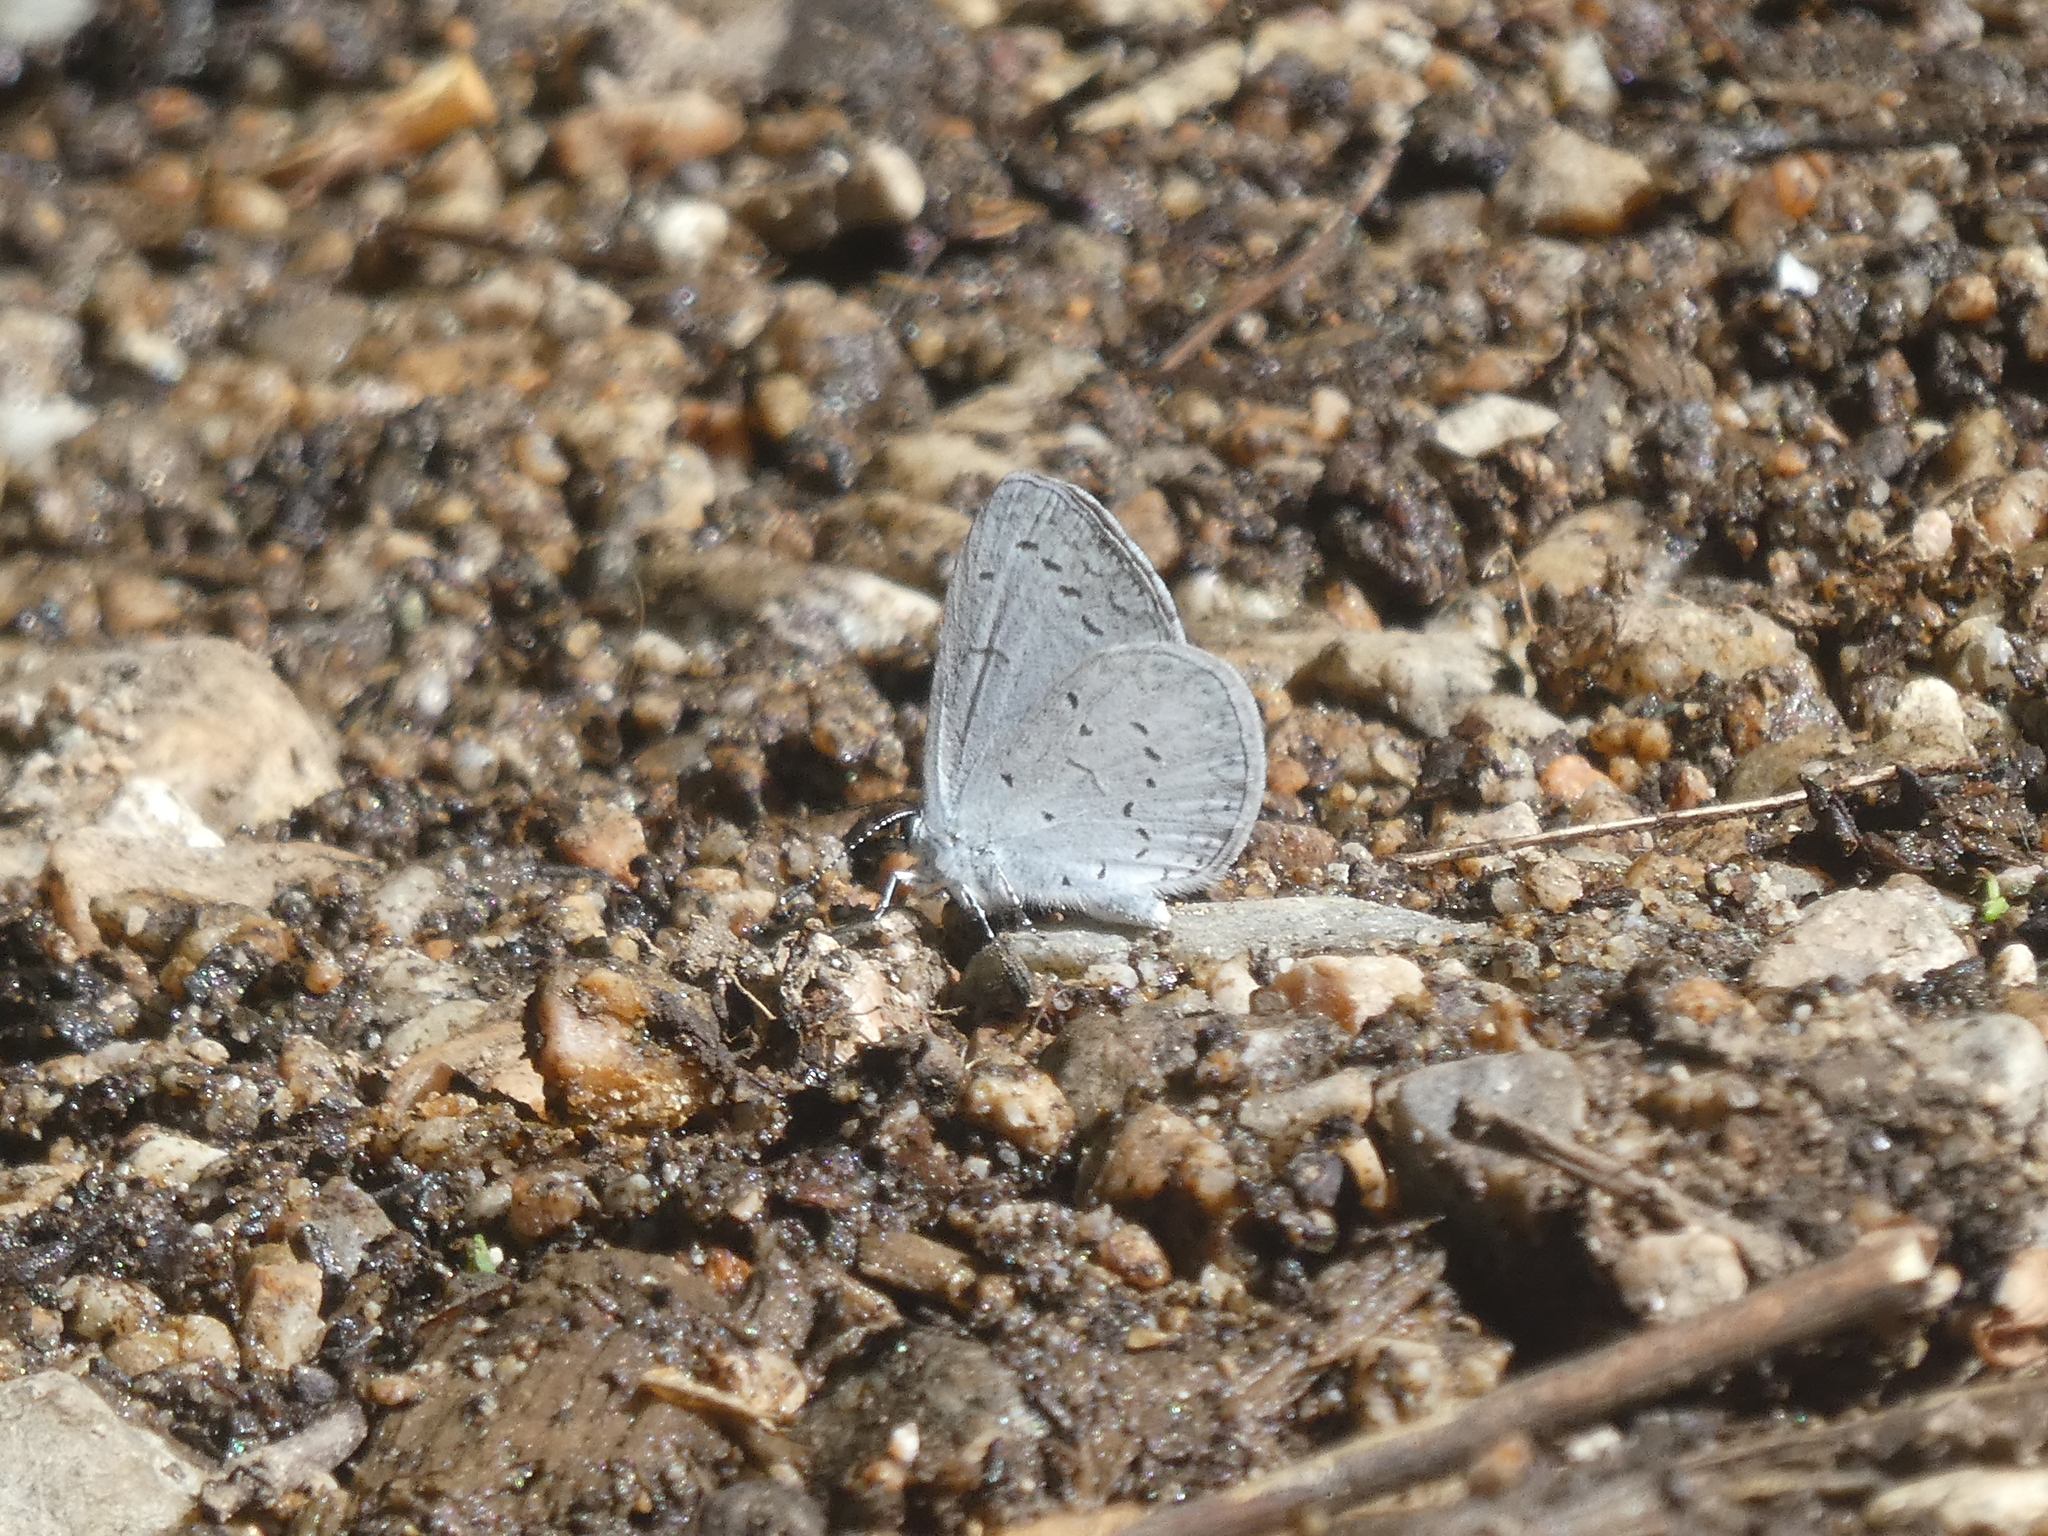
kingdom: Animalia
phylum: Arthropoda
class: Insecta
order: Lepidoptera
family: Lycaenidae
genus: Celastrina
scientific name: Celastrina ladon
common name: Spring azure
